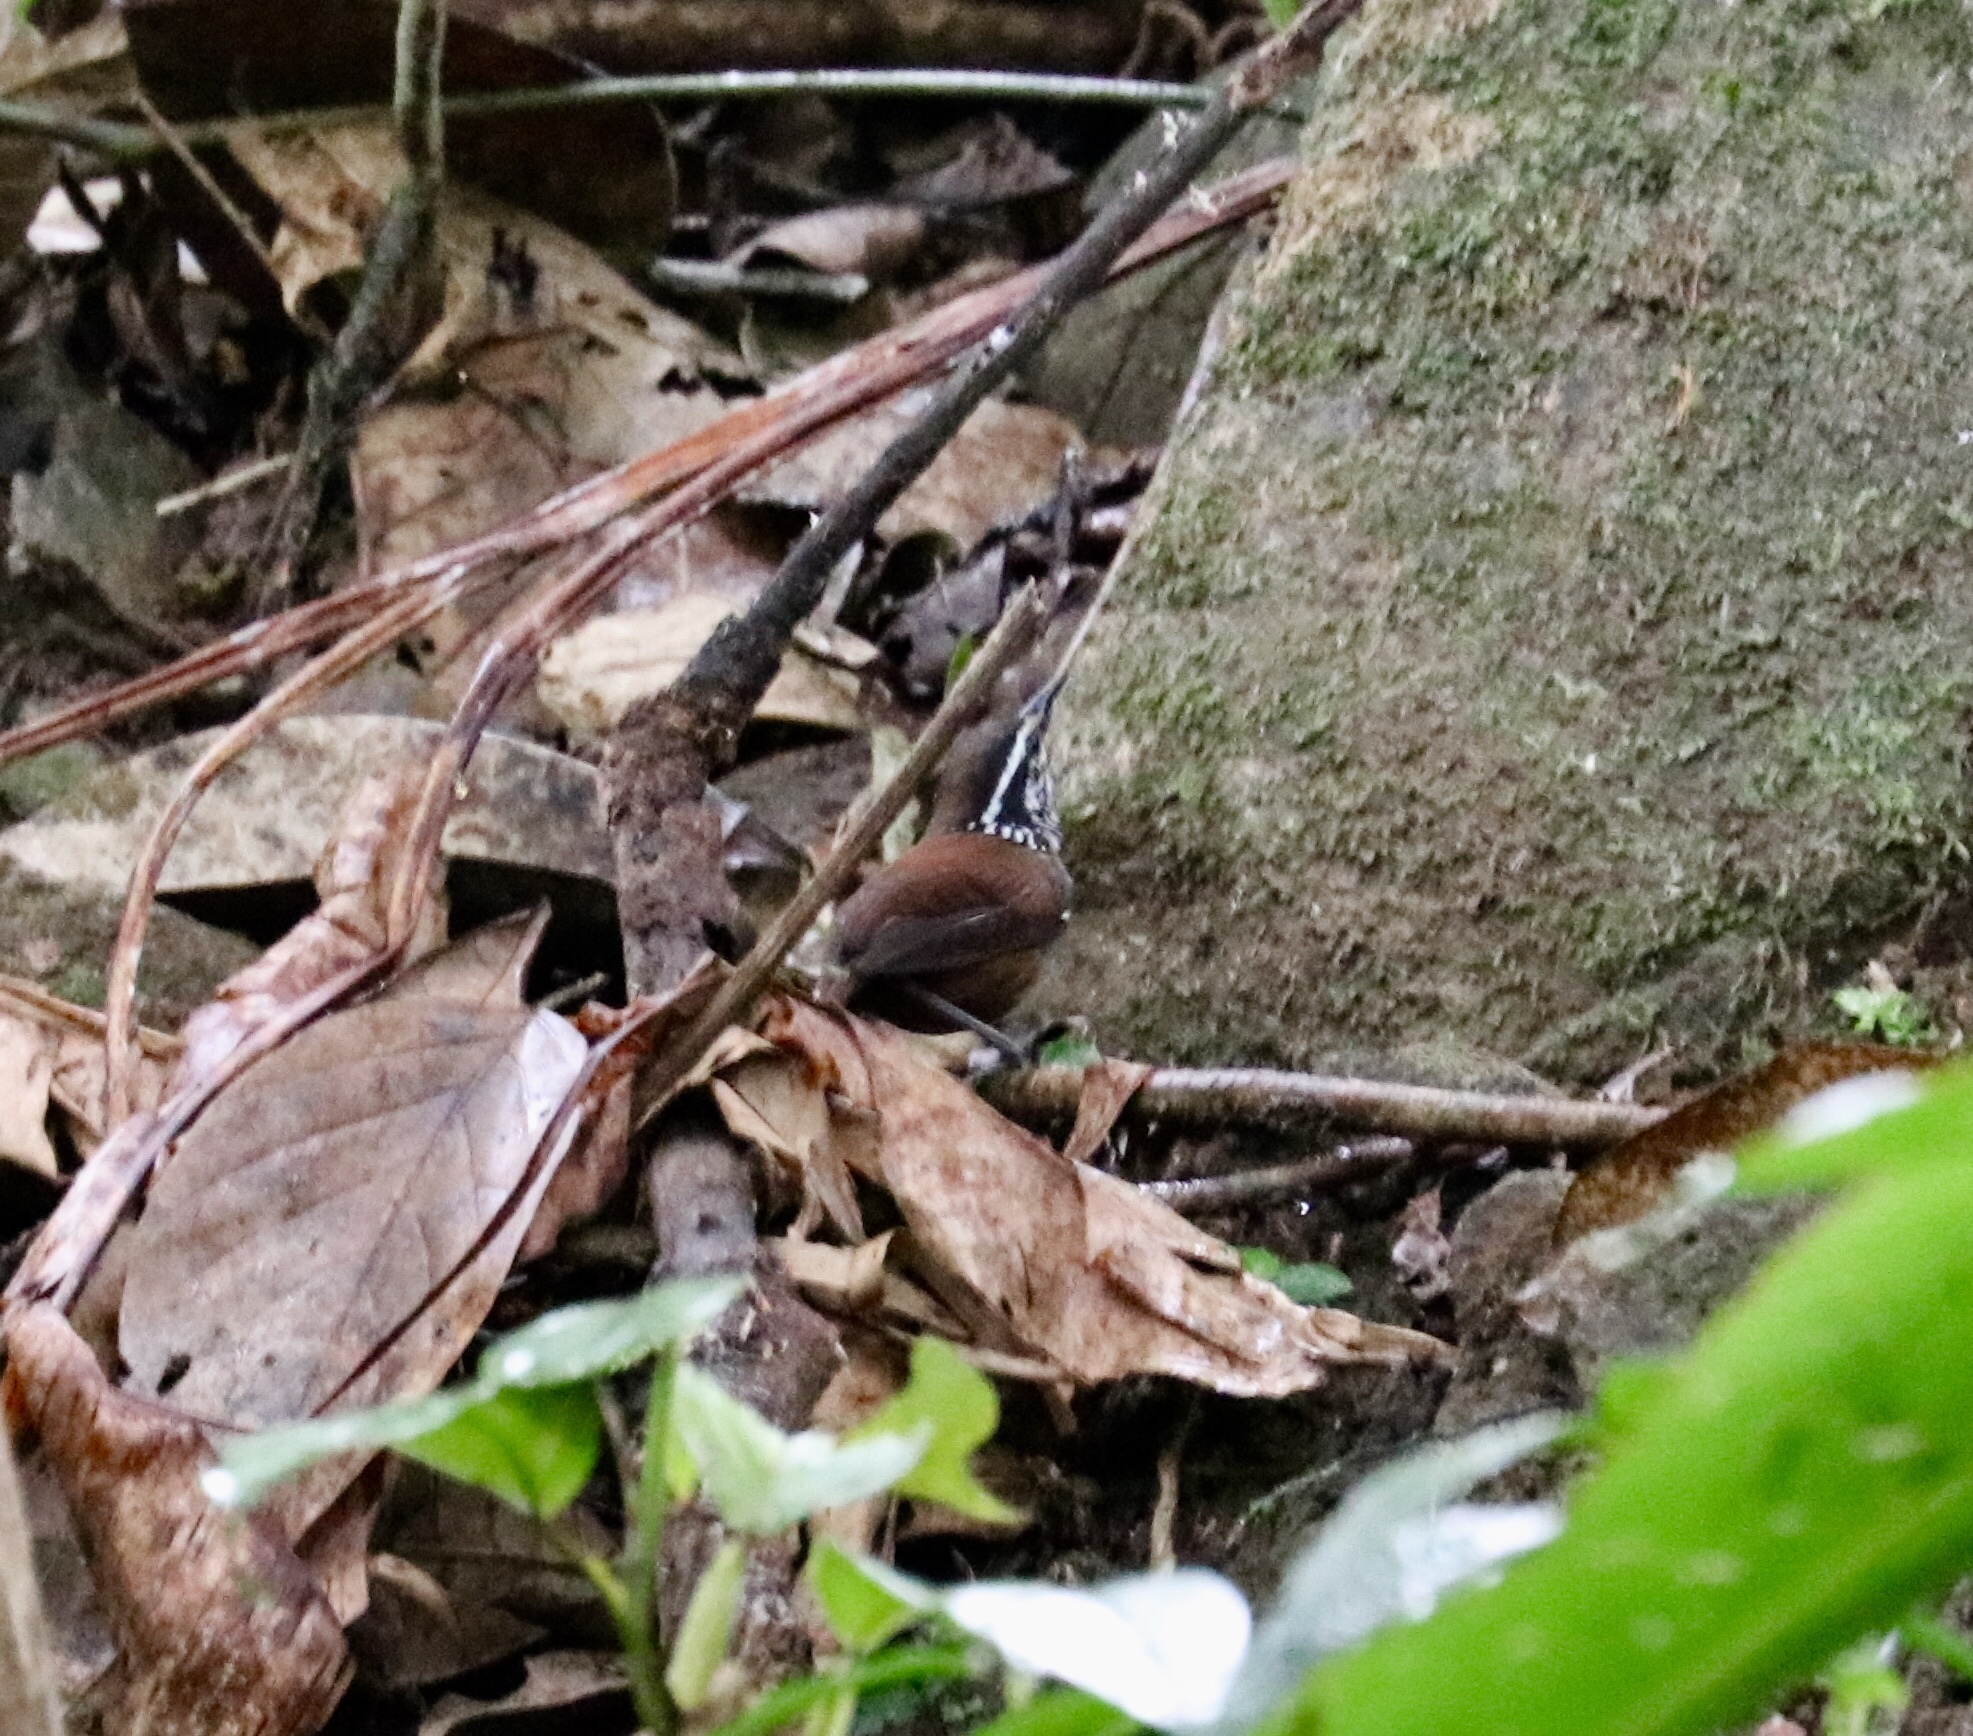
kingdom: Animalia
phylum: Chordata
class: Aves
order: Passeriformes
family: Troglodytidae
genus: Henicorhina
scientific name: Henicorhina leucosticta
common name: White-breasted wood-wren
